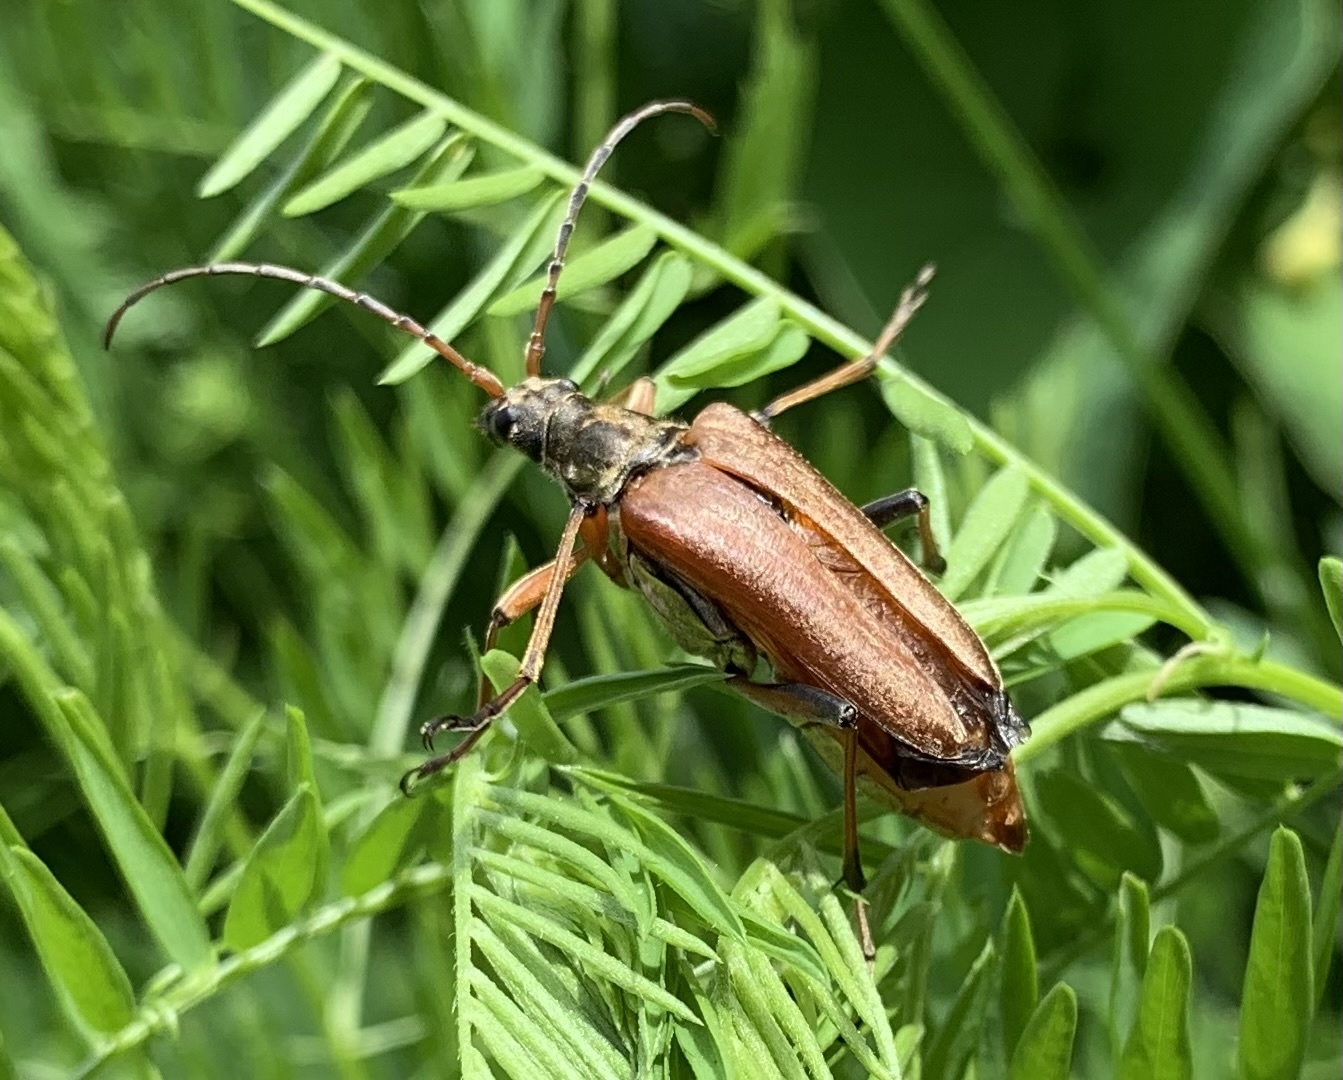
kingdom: Animalia
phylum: Arthropoda
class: Insecta
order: Coleoptera
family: Cerambycidae
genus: Stenocorus
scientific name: Stenocorus meridianus
